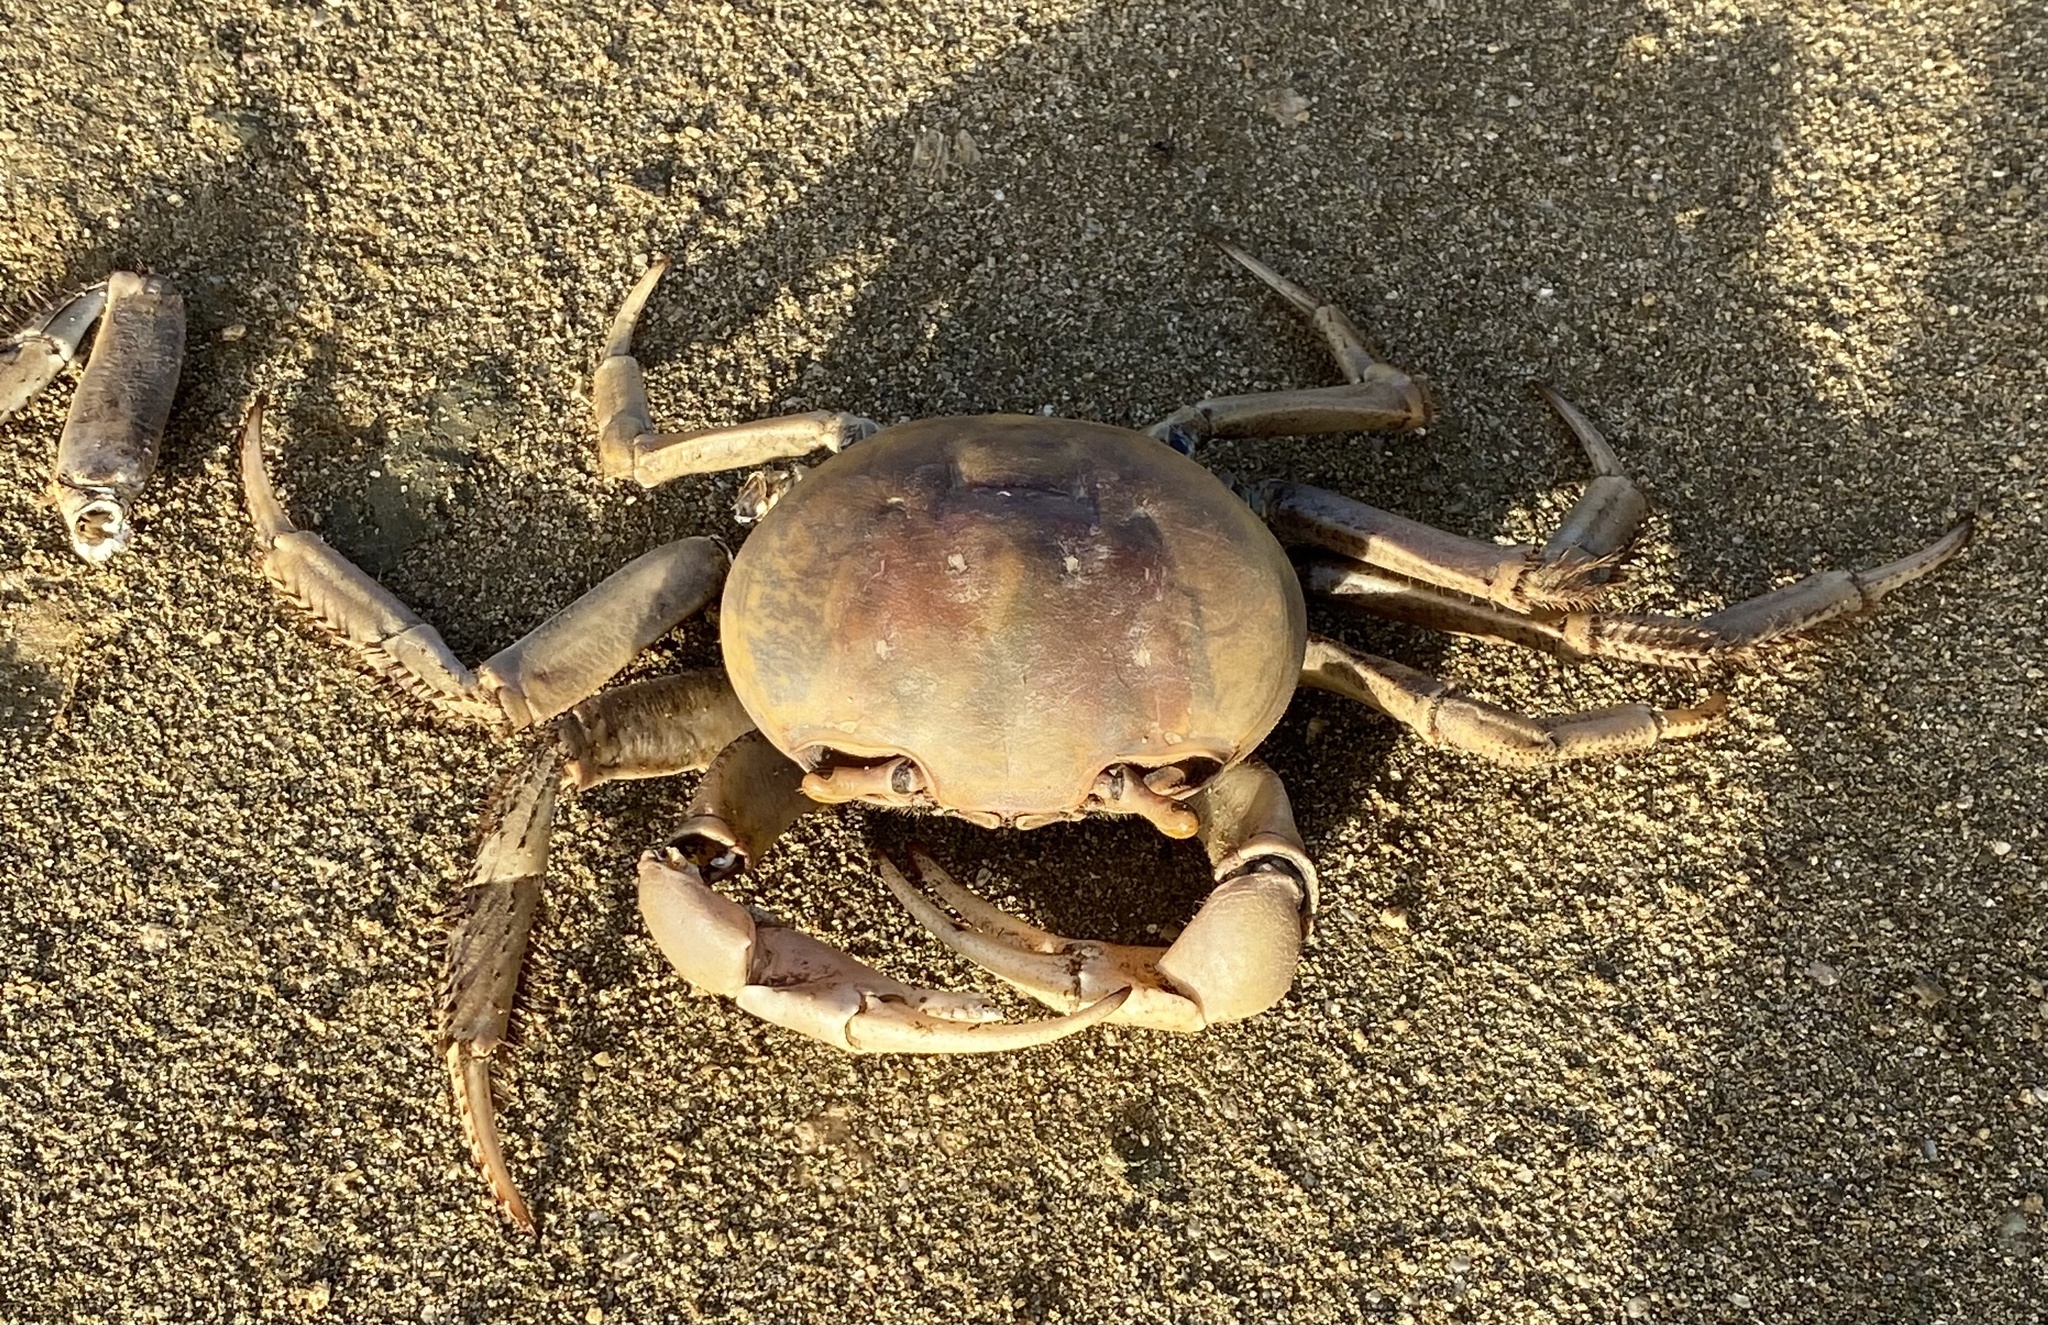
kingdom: Animalia
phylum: Arthropoda
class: Malacostraca
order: Decapoda
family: Gecarcinidae
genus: Cardisoma
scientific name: Cardisoma guanhumi
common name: Great land crab
